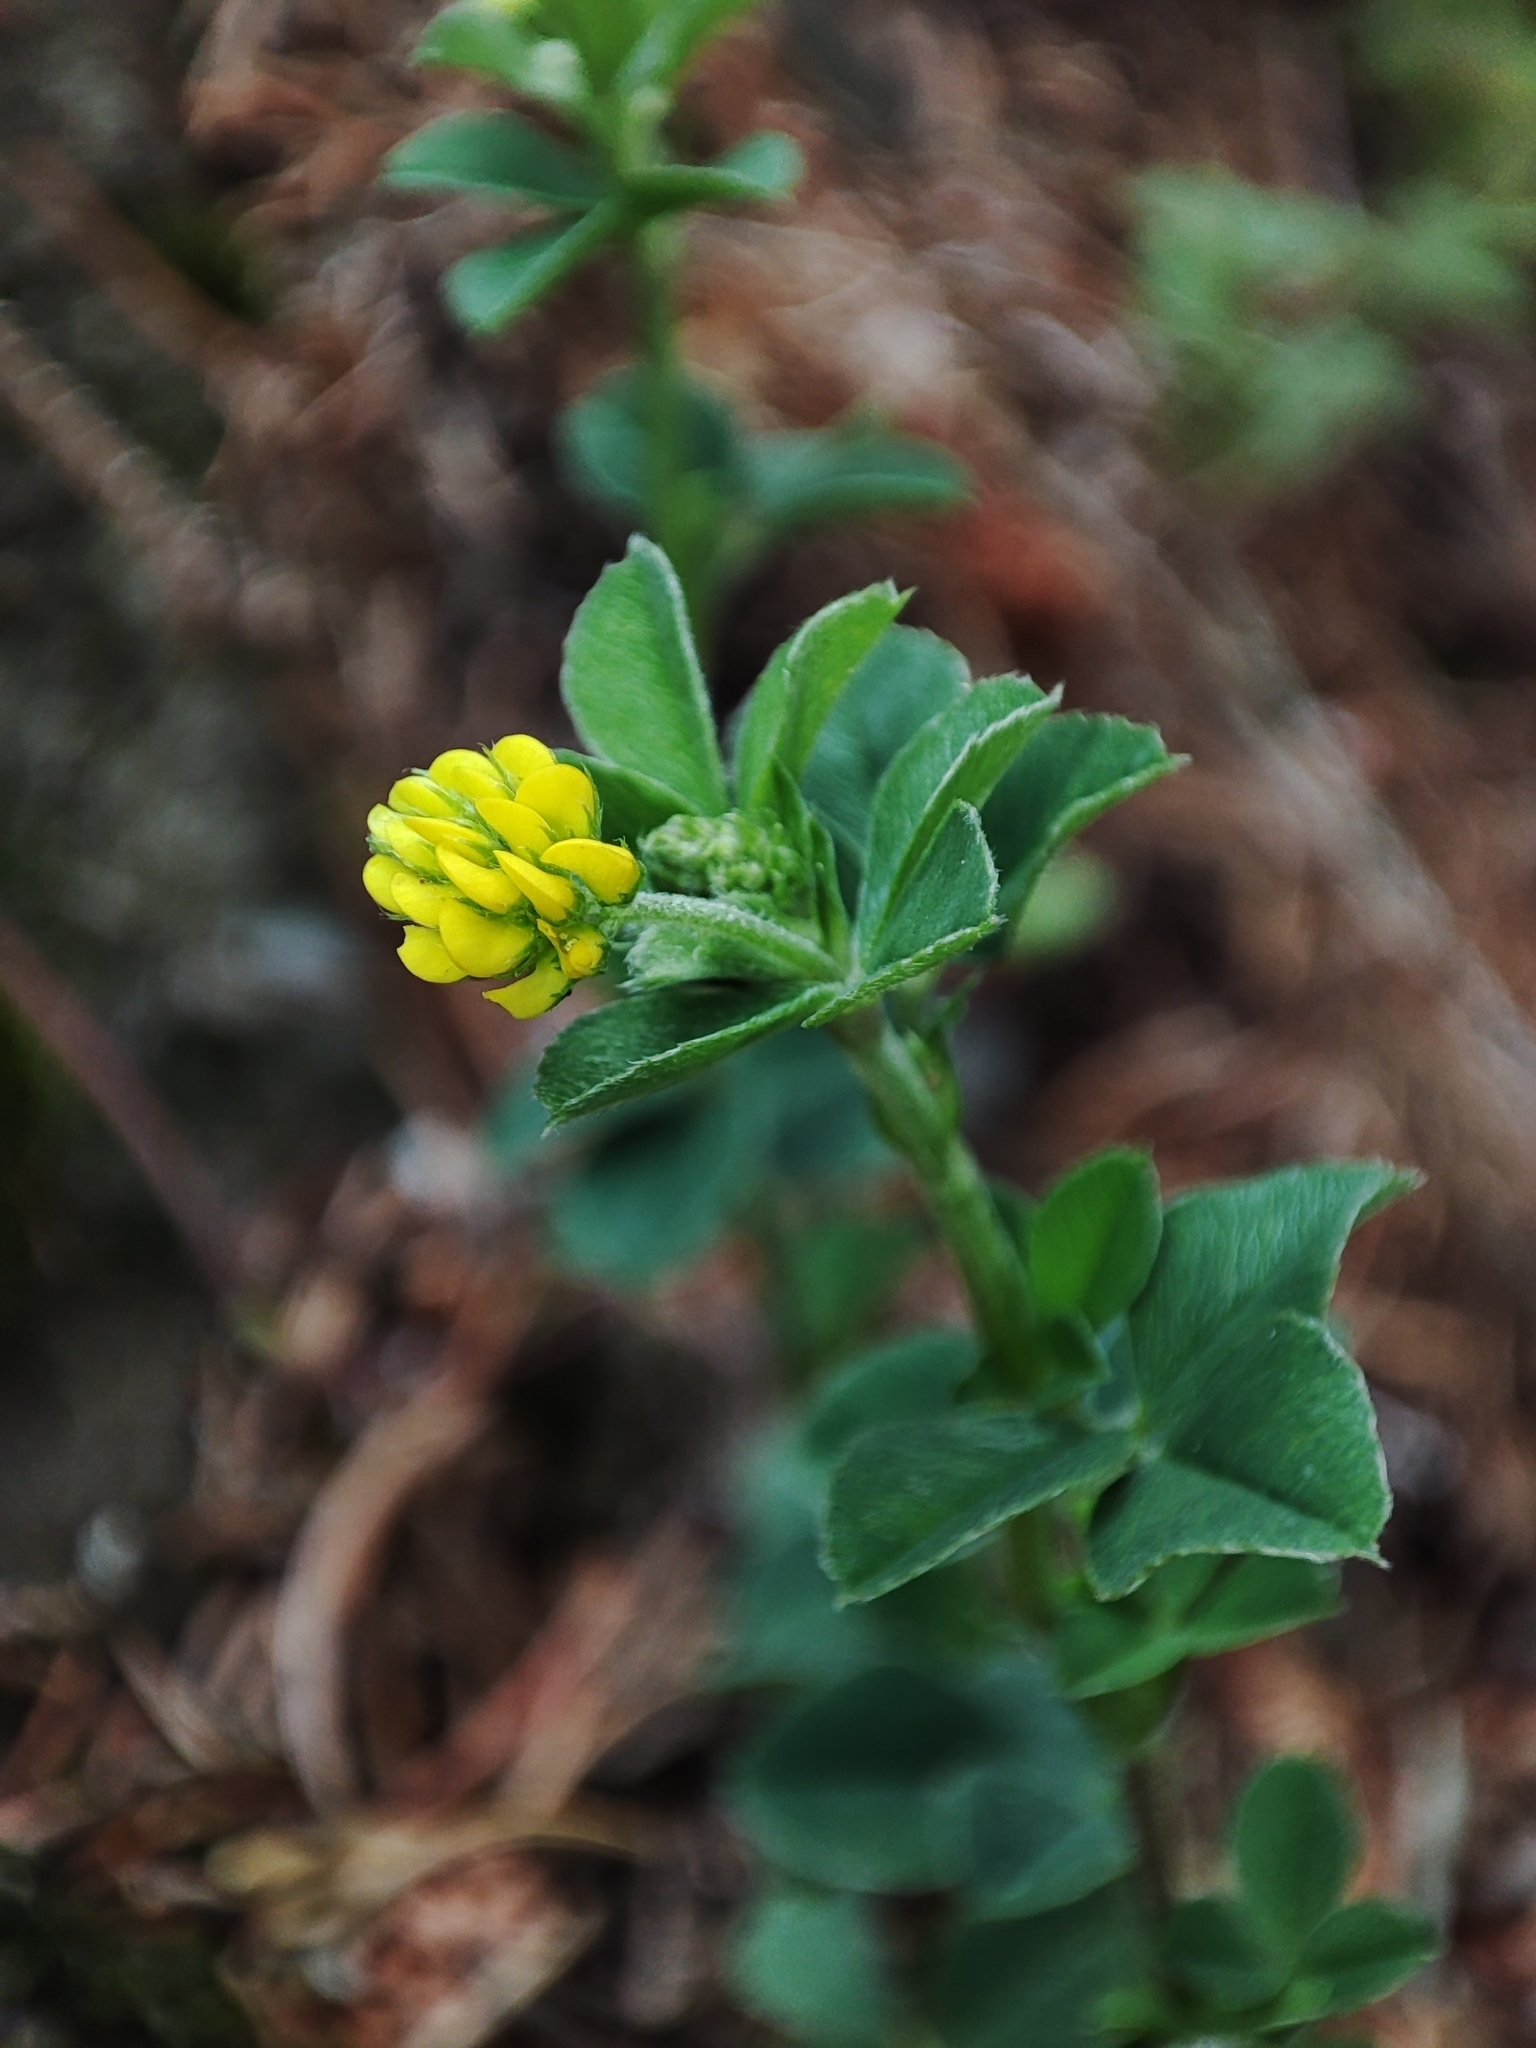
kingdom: Plantae
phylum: Tracheophyta
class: Magnoliopsida
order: Fabales
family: Fabaceae
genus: Medicago
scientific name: Medicago lupulina
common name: Black medick
